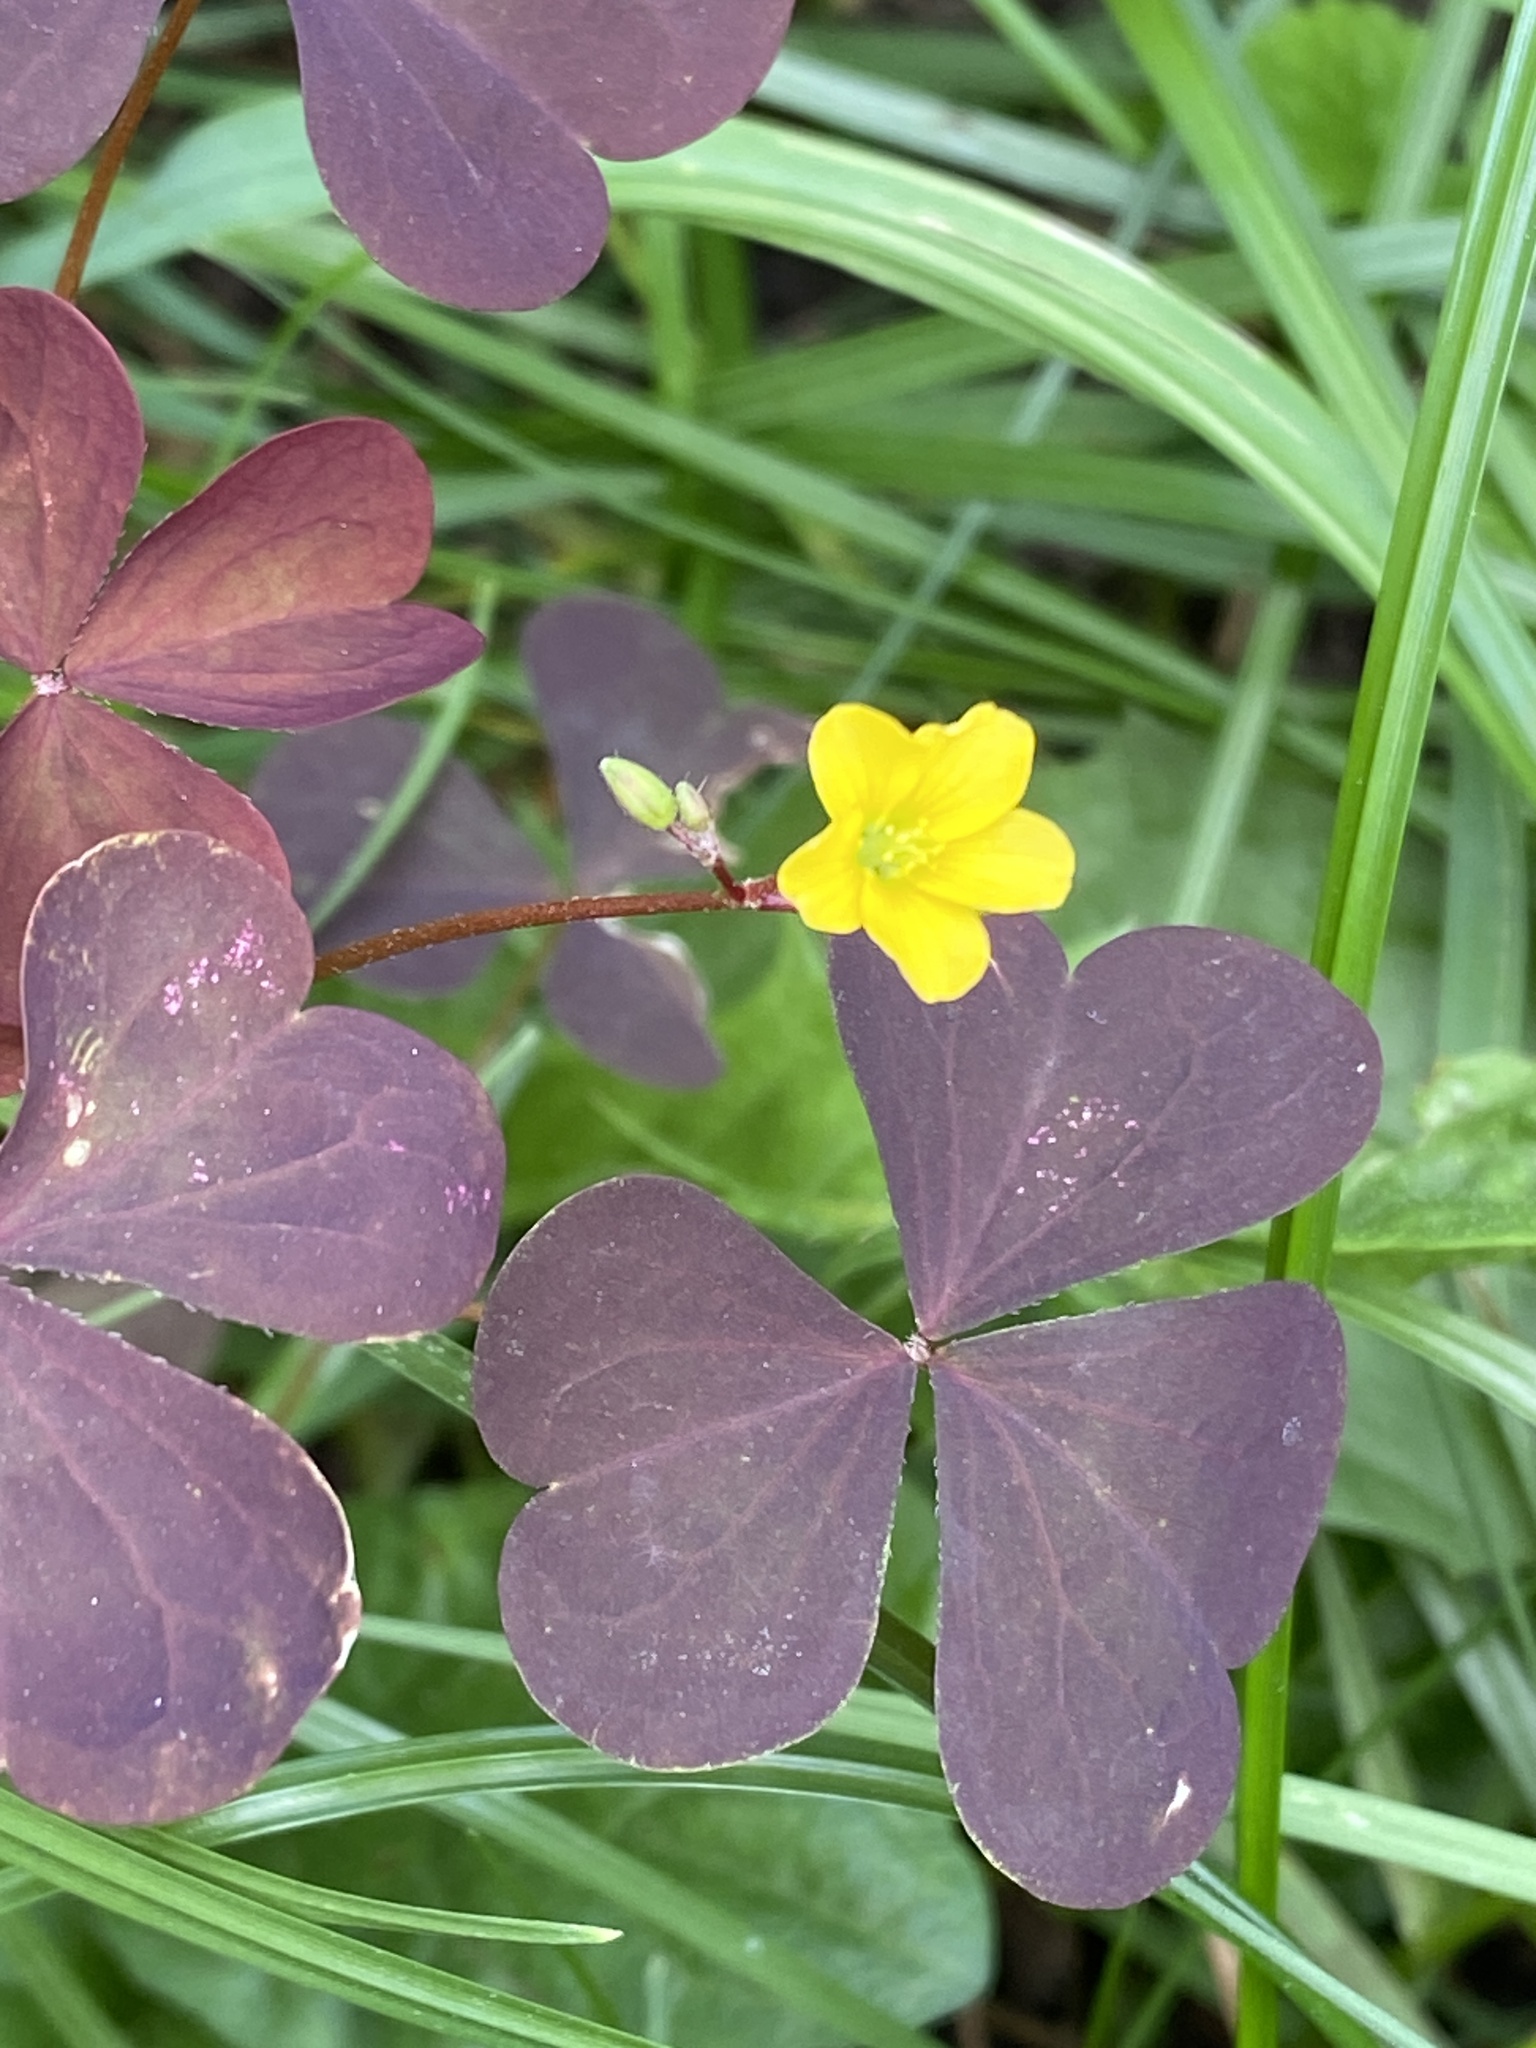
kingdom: Plantae
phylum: Tracheophyta
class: Magnoliopsida
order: Oxalidales
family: Oxalidaceae
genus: Oxalis
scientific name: Oxalis stricta
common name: Upright yellow-sorrel
